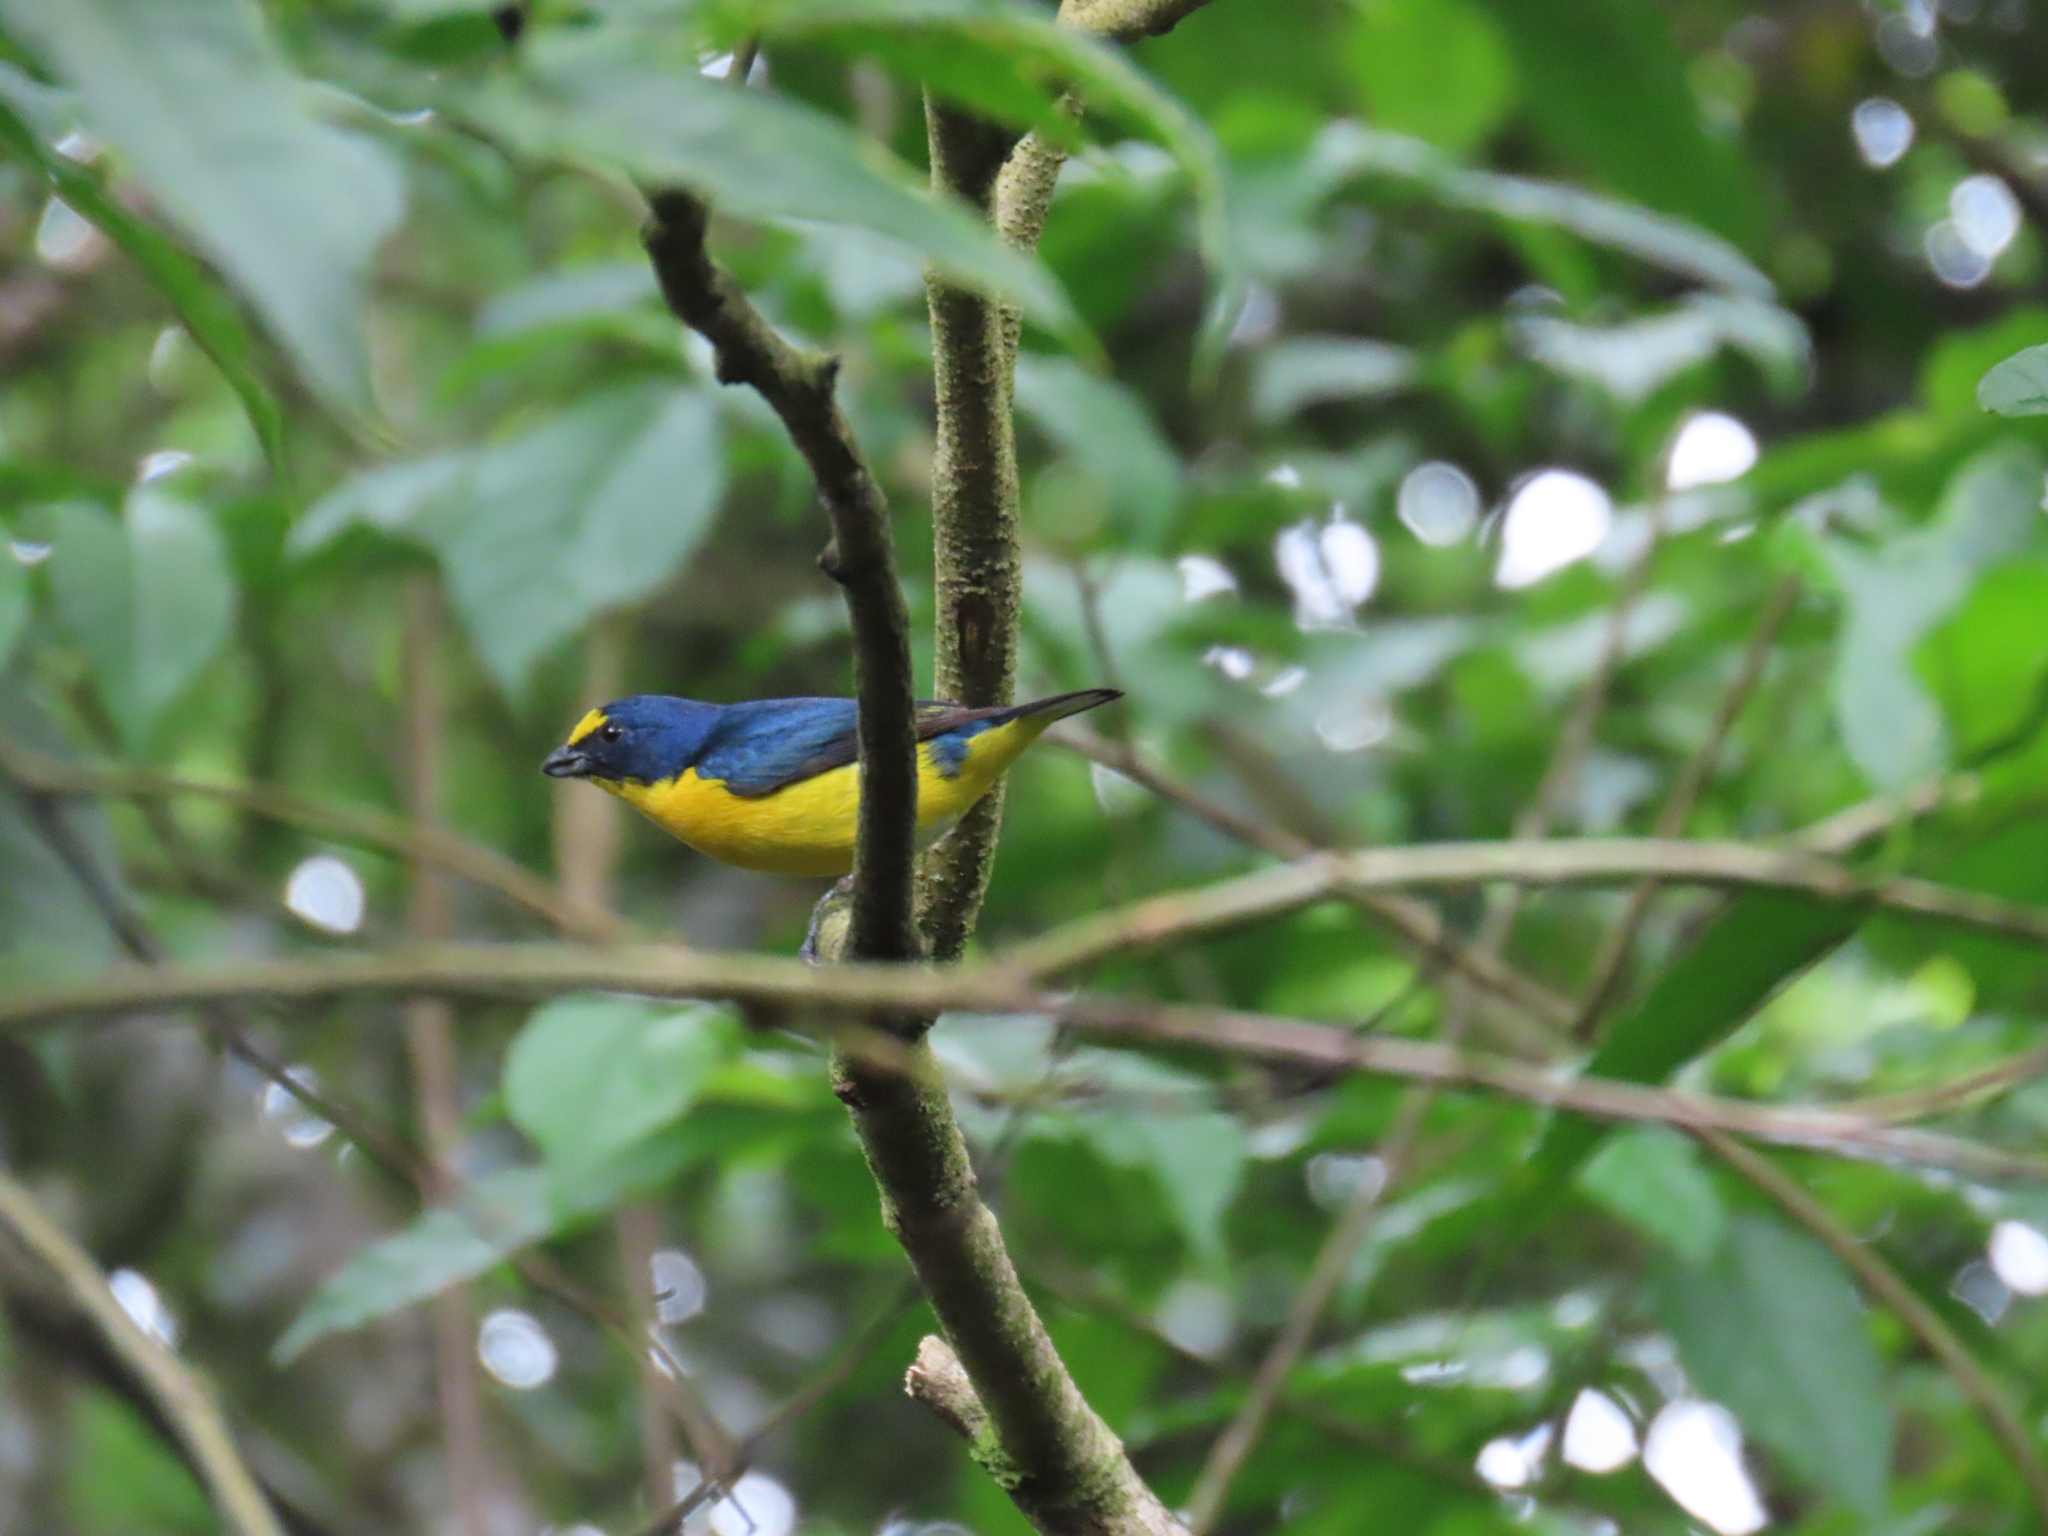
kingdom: Animalia
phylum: Chordata
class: Aves
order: Passeriformes
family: Fringillidae
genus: Euphonia
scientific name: Euphonia hirundinacea
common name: Yellow-throated euphonia
